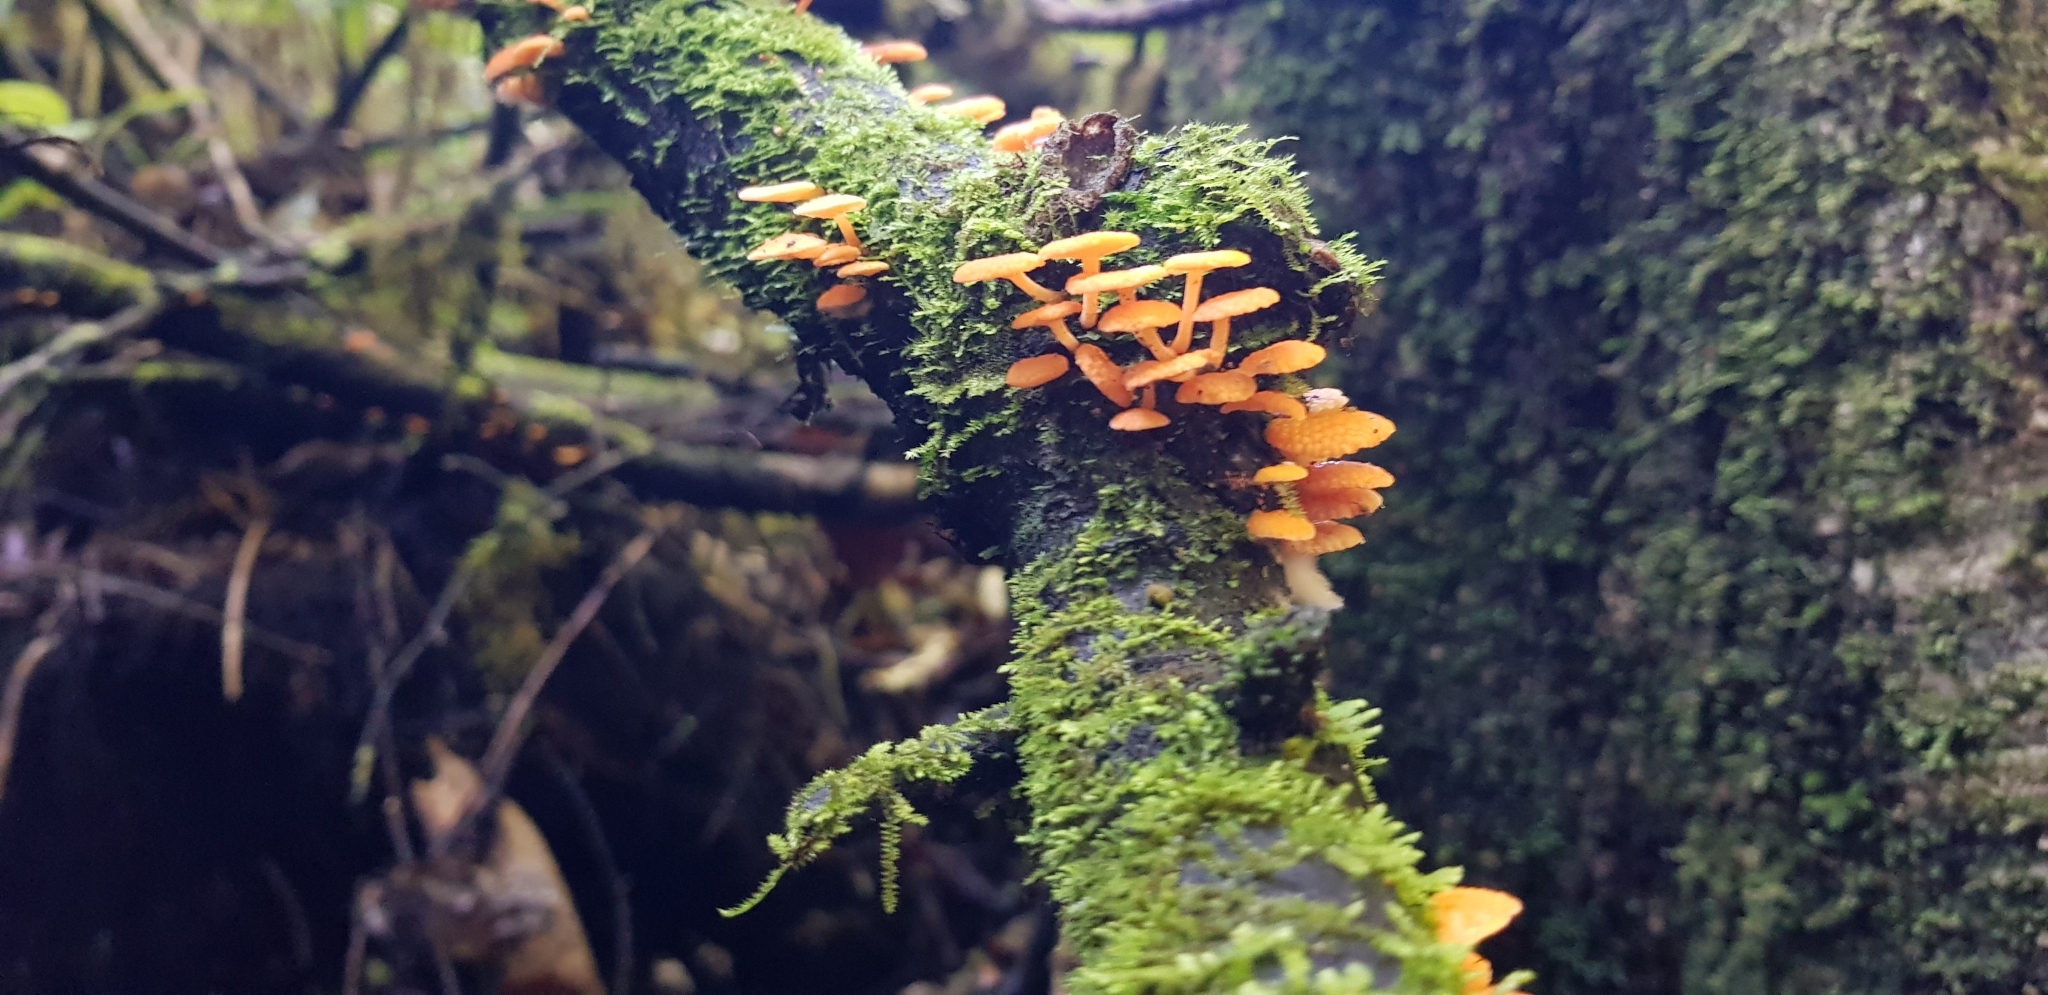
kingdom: Fungi
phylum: Basidiomycota
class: Agaricomycetes
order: Agaricales
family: Mycenaceae
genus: Favolaschia
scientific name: Favolaschia claudopus
